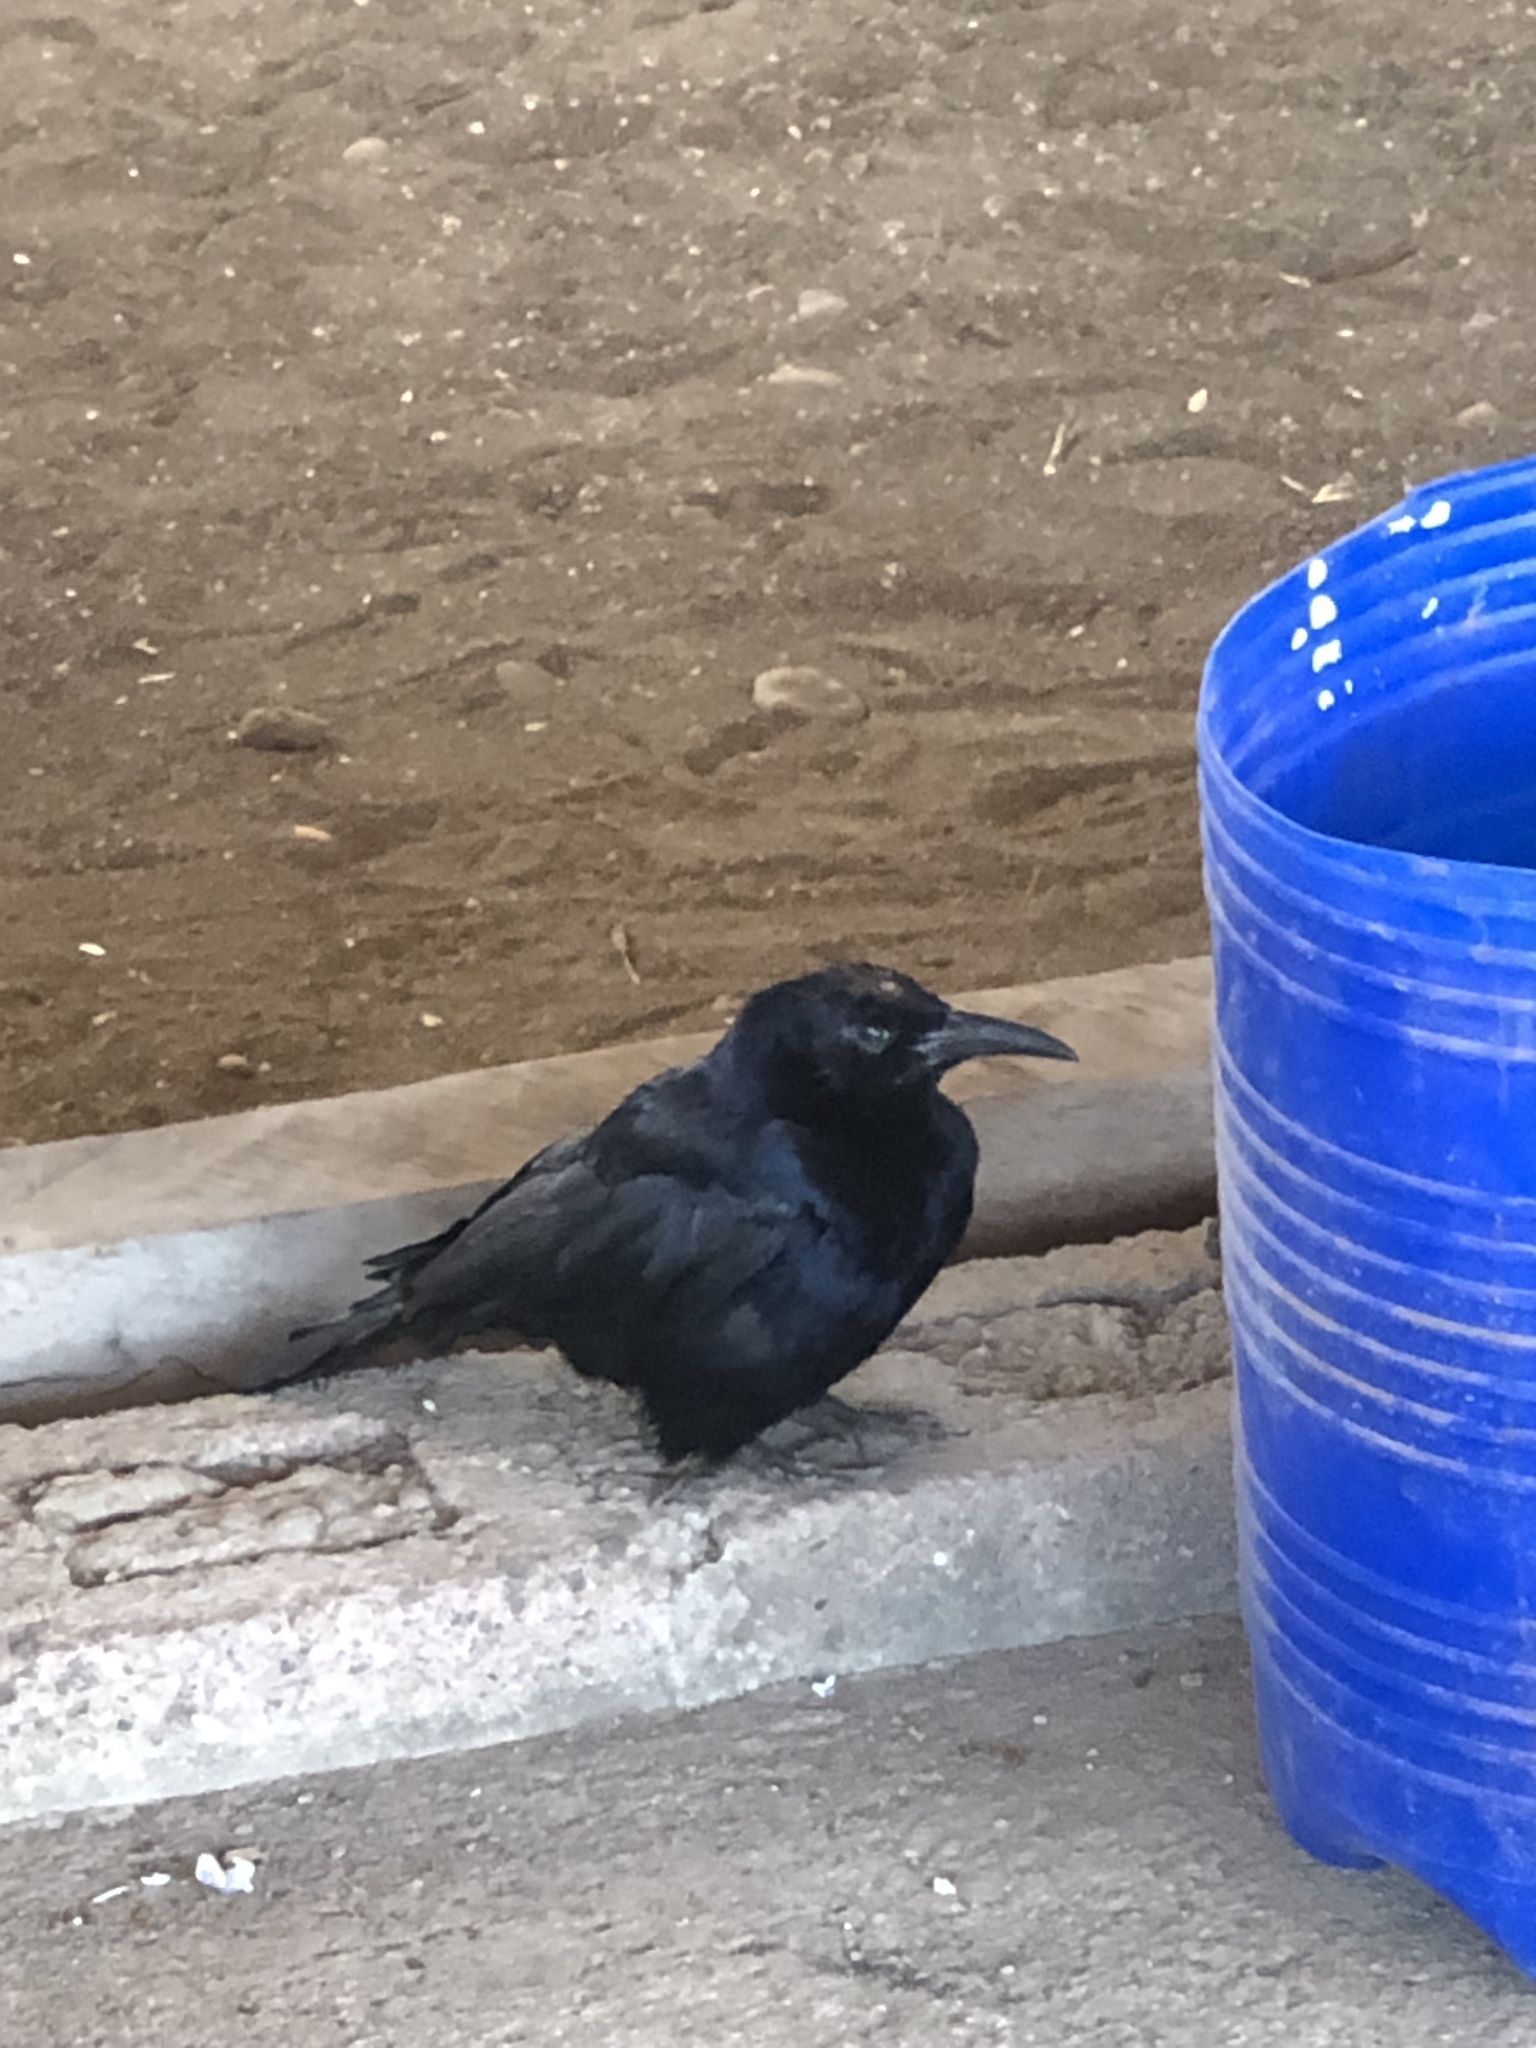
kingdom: Animalia
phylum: Chordata
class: Aves
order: Passeriformes
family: Icteridae
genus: Quiscalus
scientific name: Quiscalus mexicanus
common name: Great-tailed grackle
